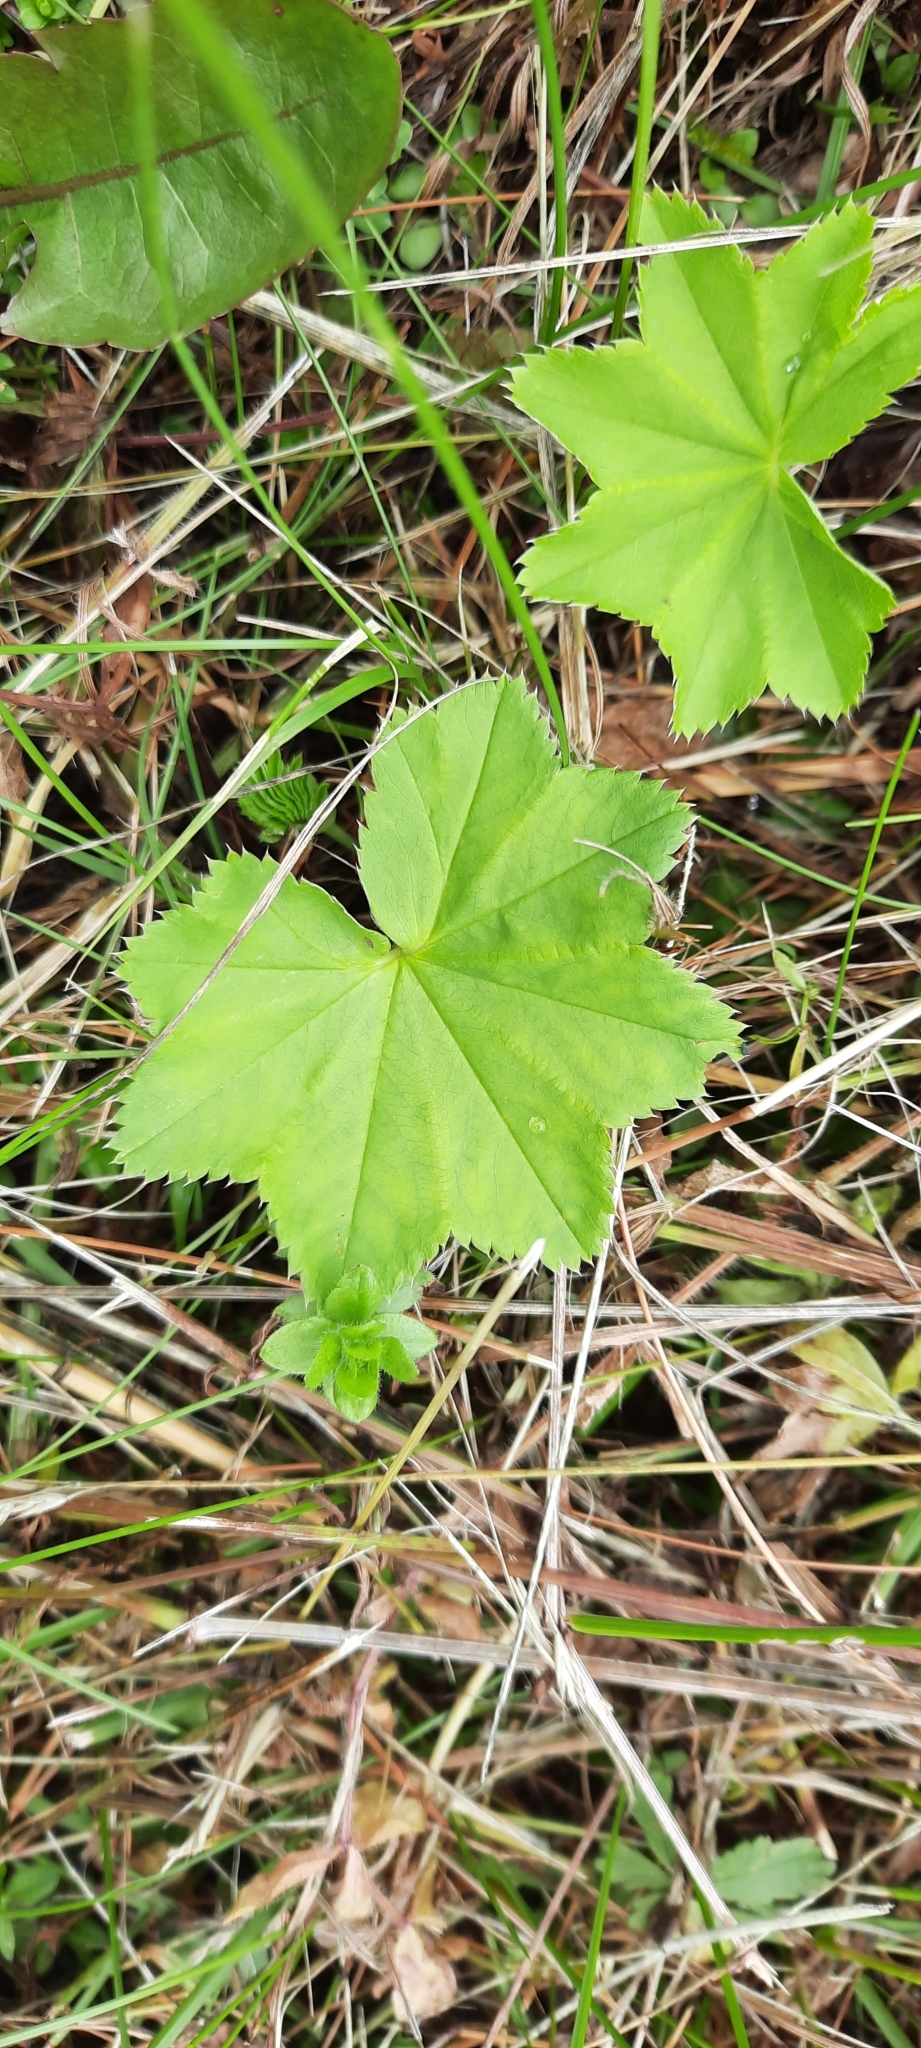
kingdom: Plantae
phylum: Tracheophyta
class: Magnoliopsida
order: Rosales
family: Rosaceae
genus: Alchemilla
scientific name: Alchemilla vulgaris
